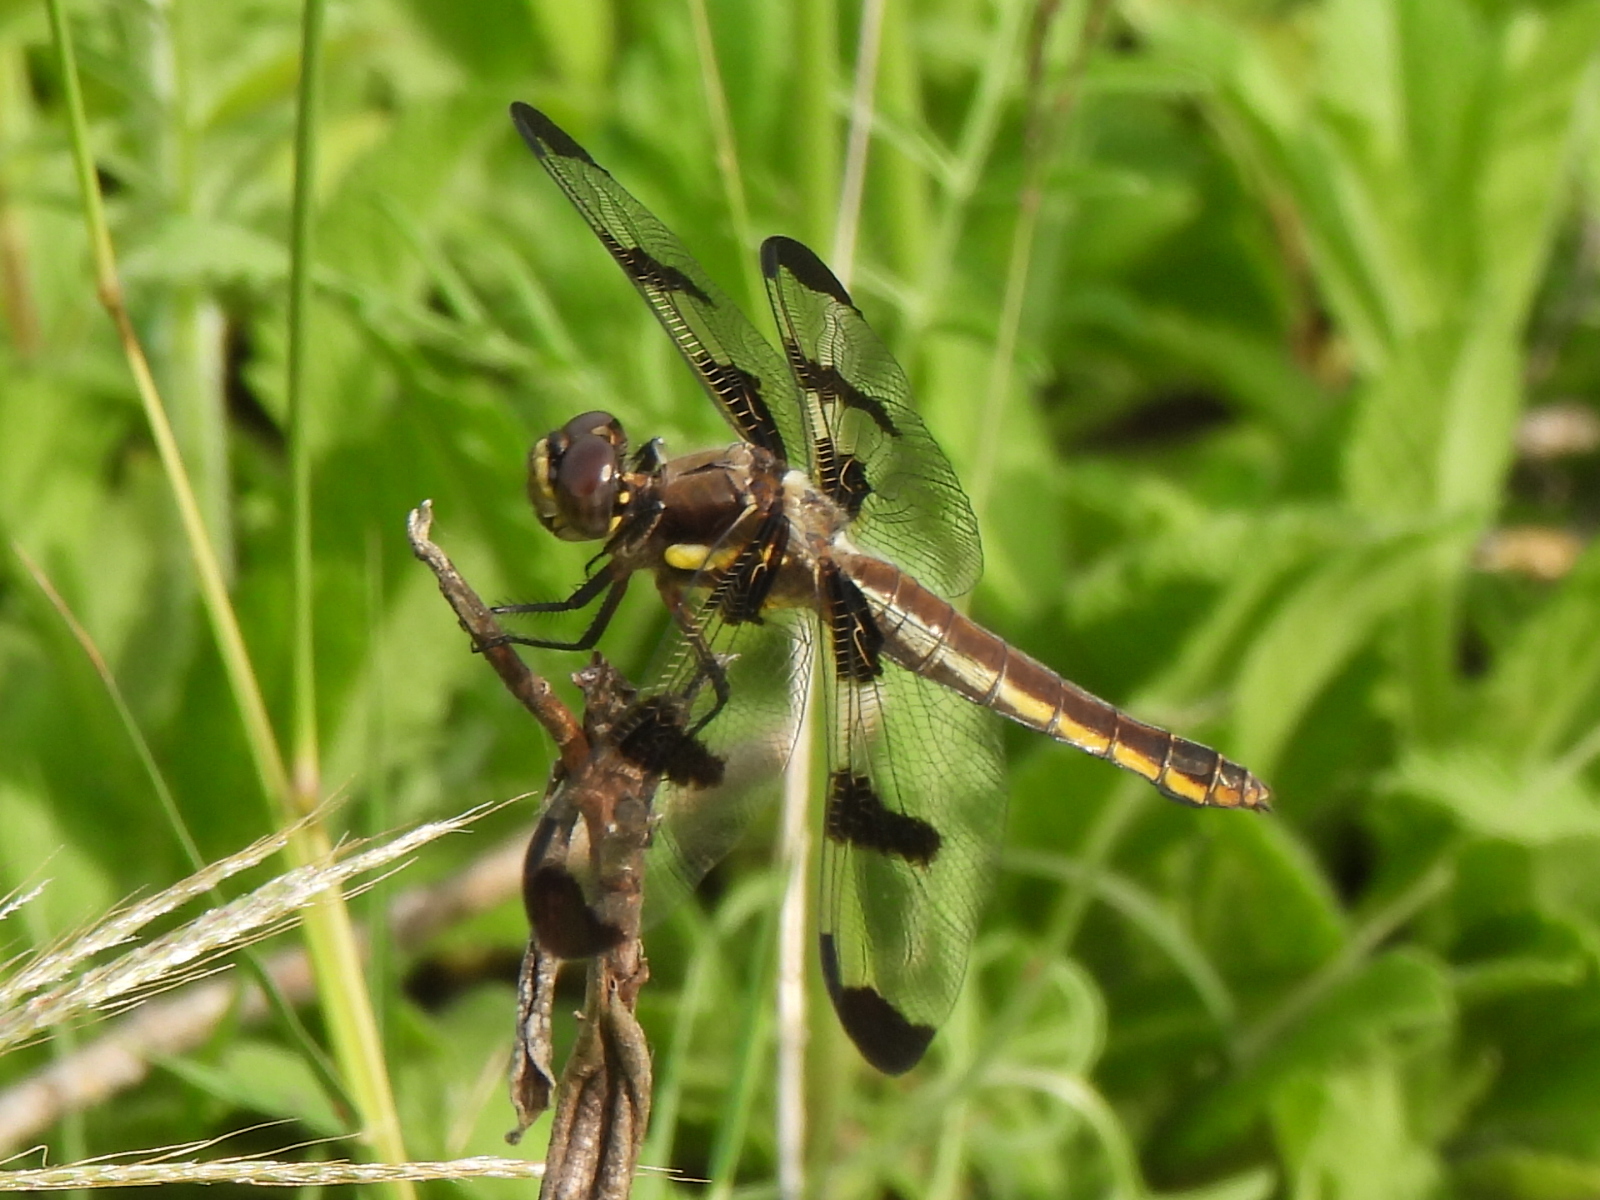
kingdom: Animalia
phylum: Arthropoda
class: Insecta
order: Odonata
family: Libellulidae
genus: Libellula
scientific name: Libellula pulchella
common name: Twelve-spotted skimmer
